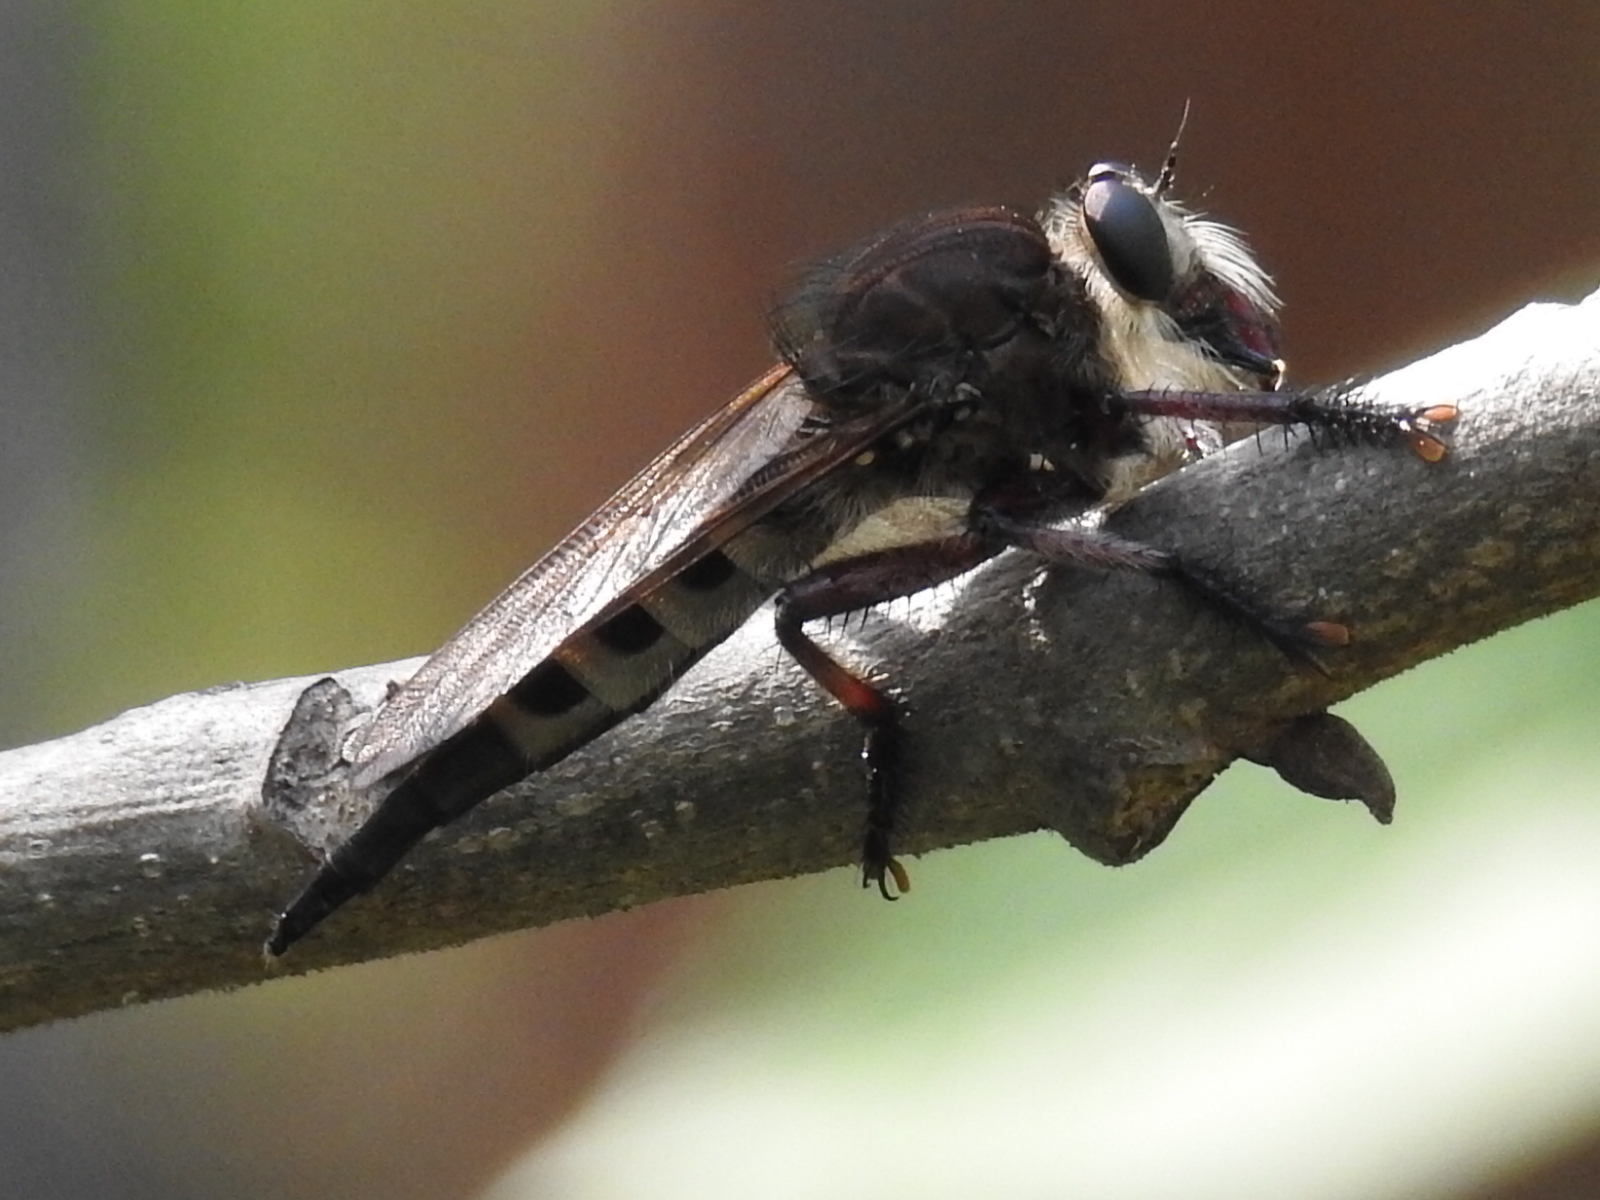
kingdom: Animalia
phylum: Arthropoda
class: Insecta
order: Diptera
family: Asilidae
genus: Promachus
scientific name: Promachus hinei
